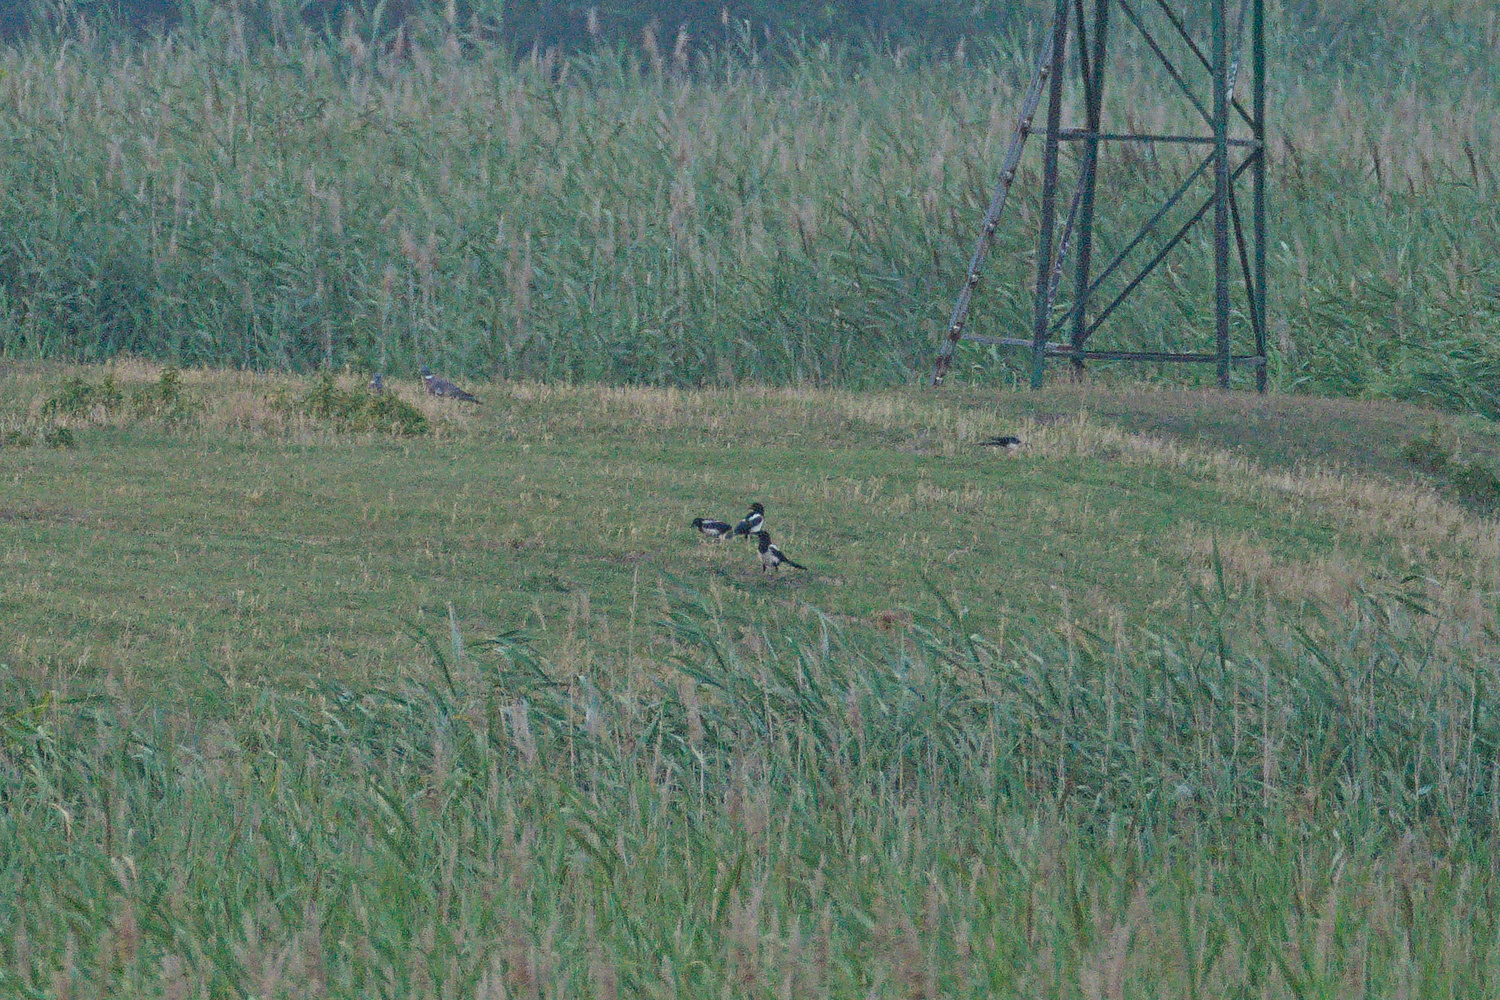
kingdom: Animalia
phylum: Chordata
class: Aves
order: Columbiformes
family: Columbidae
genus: Columba
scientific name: Columba palumbus
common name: Common wood pigeon
